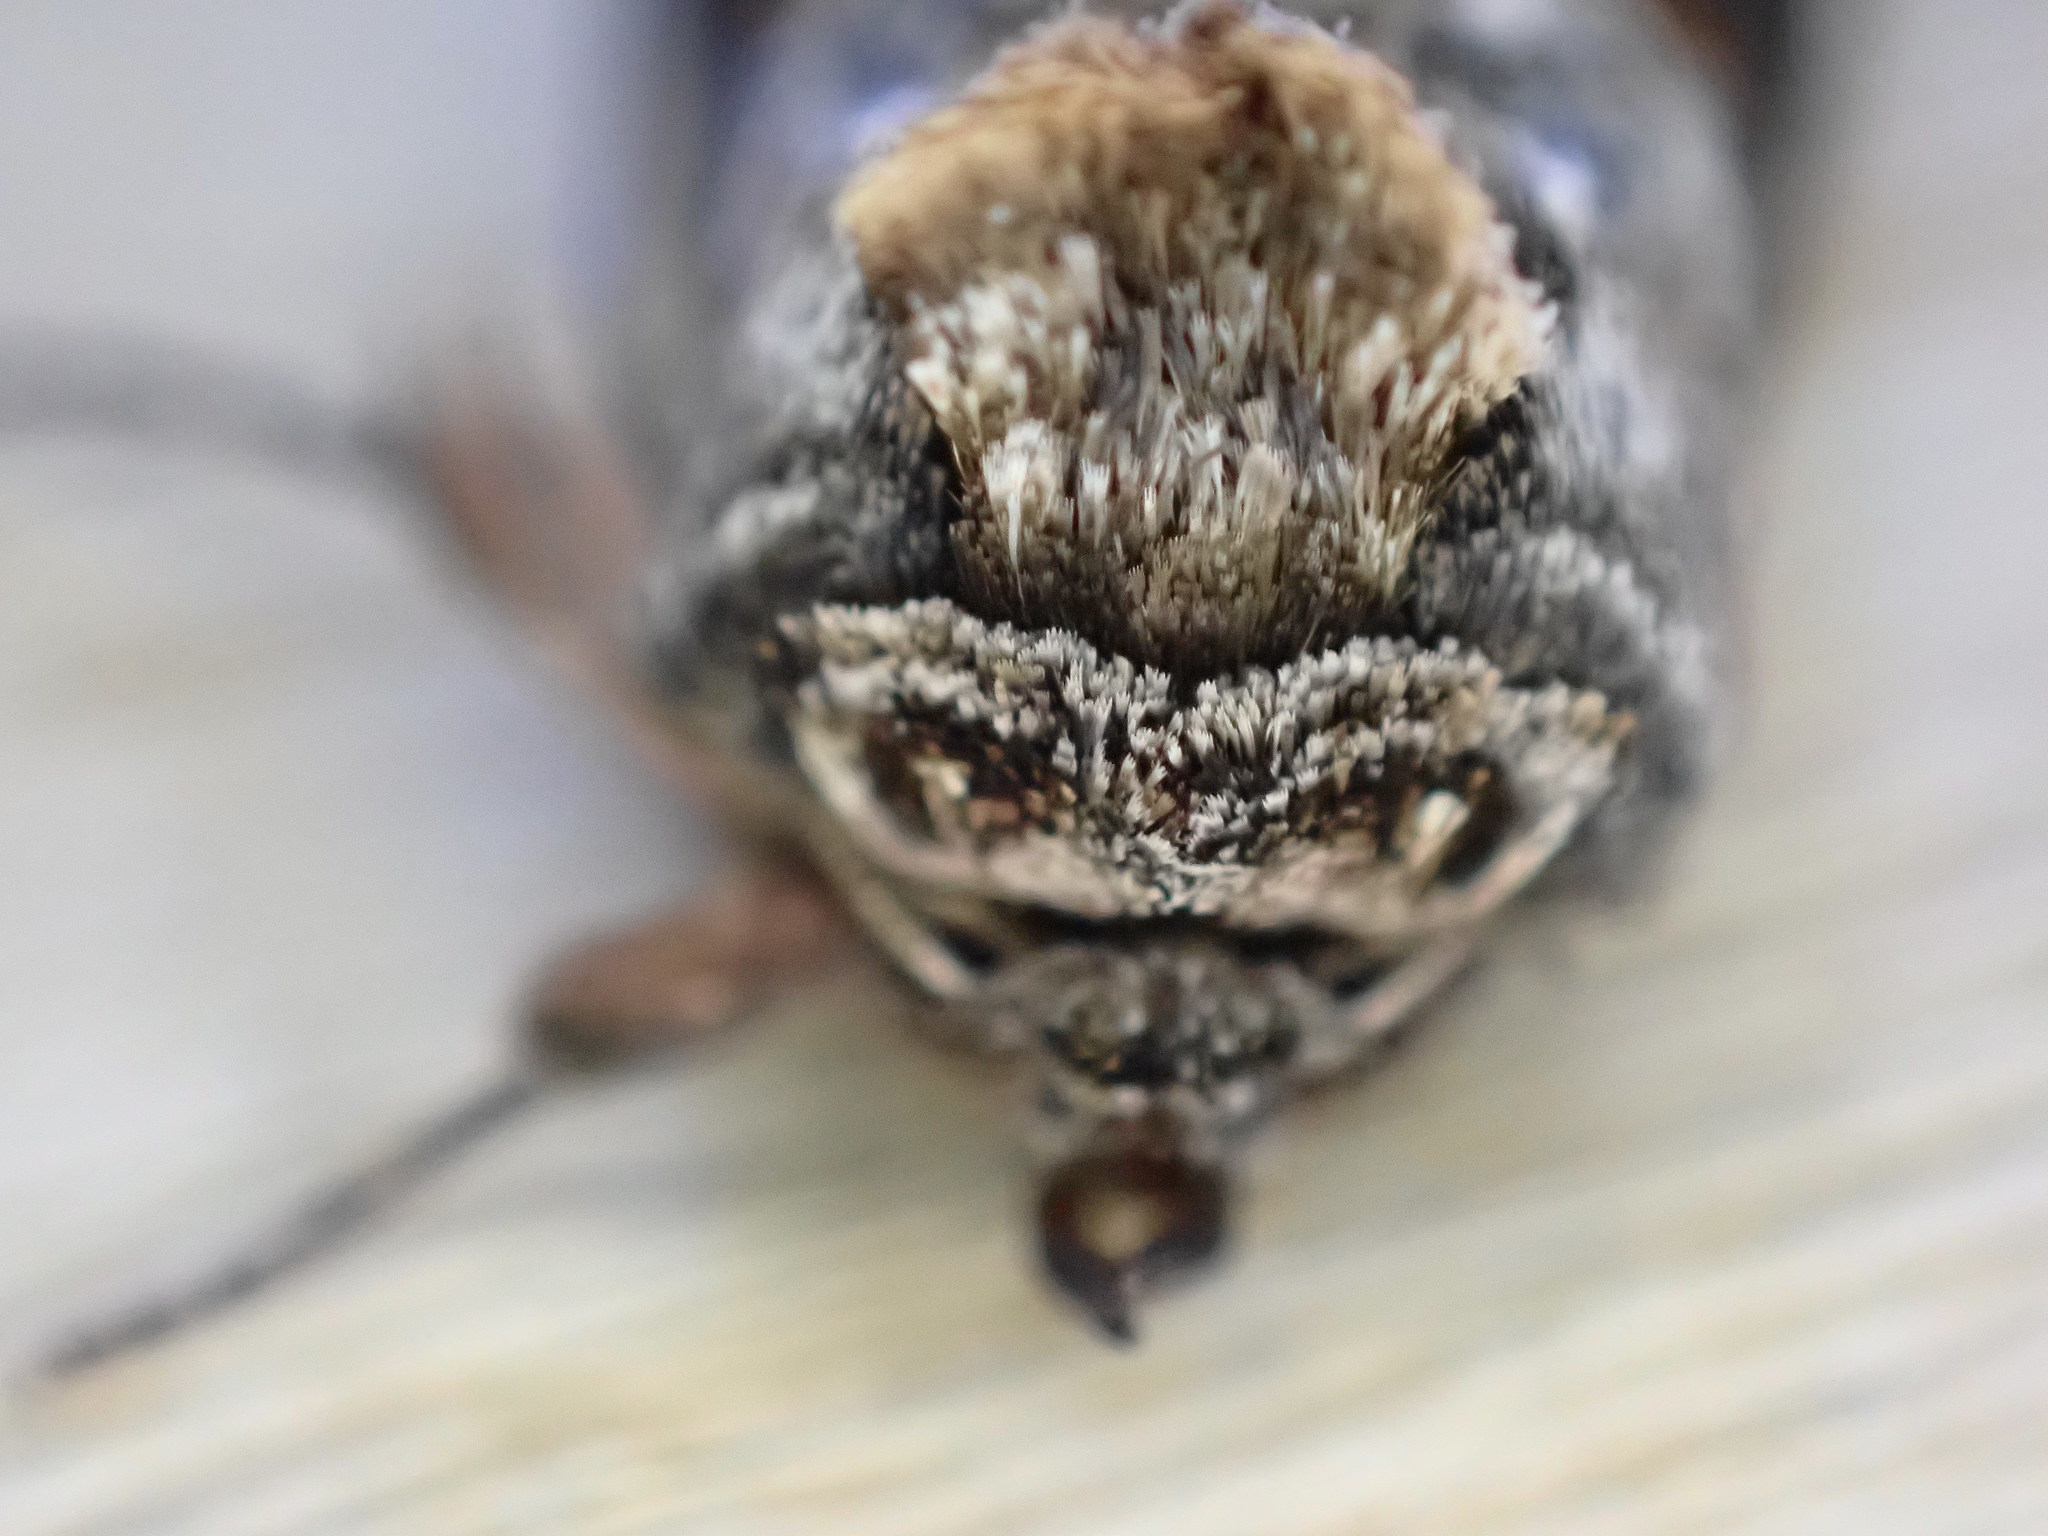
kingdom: Animalia
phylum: Arthropoda
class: Insecta
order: Lepidoptera
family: Noctuidae
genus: Abrostola
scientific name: Abrostola tripartita
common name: Spectacle
